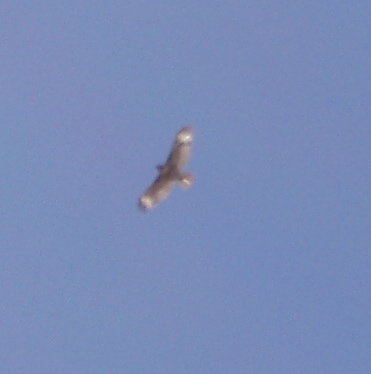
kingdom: Animalia
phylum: Chordata
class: Aves
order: Accipitriformes
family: Accipitridae
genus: Buteo
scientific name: Buteo jamaicensis
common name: Red-tailed hawk
